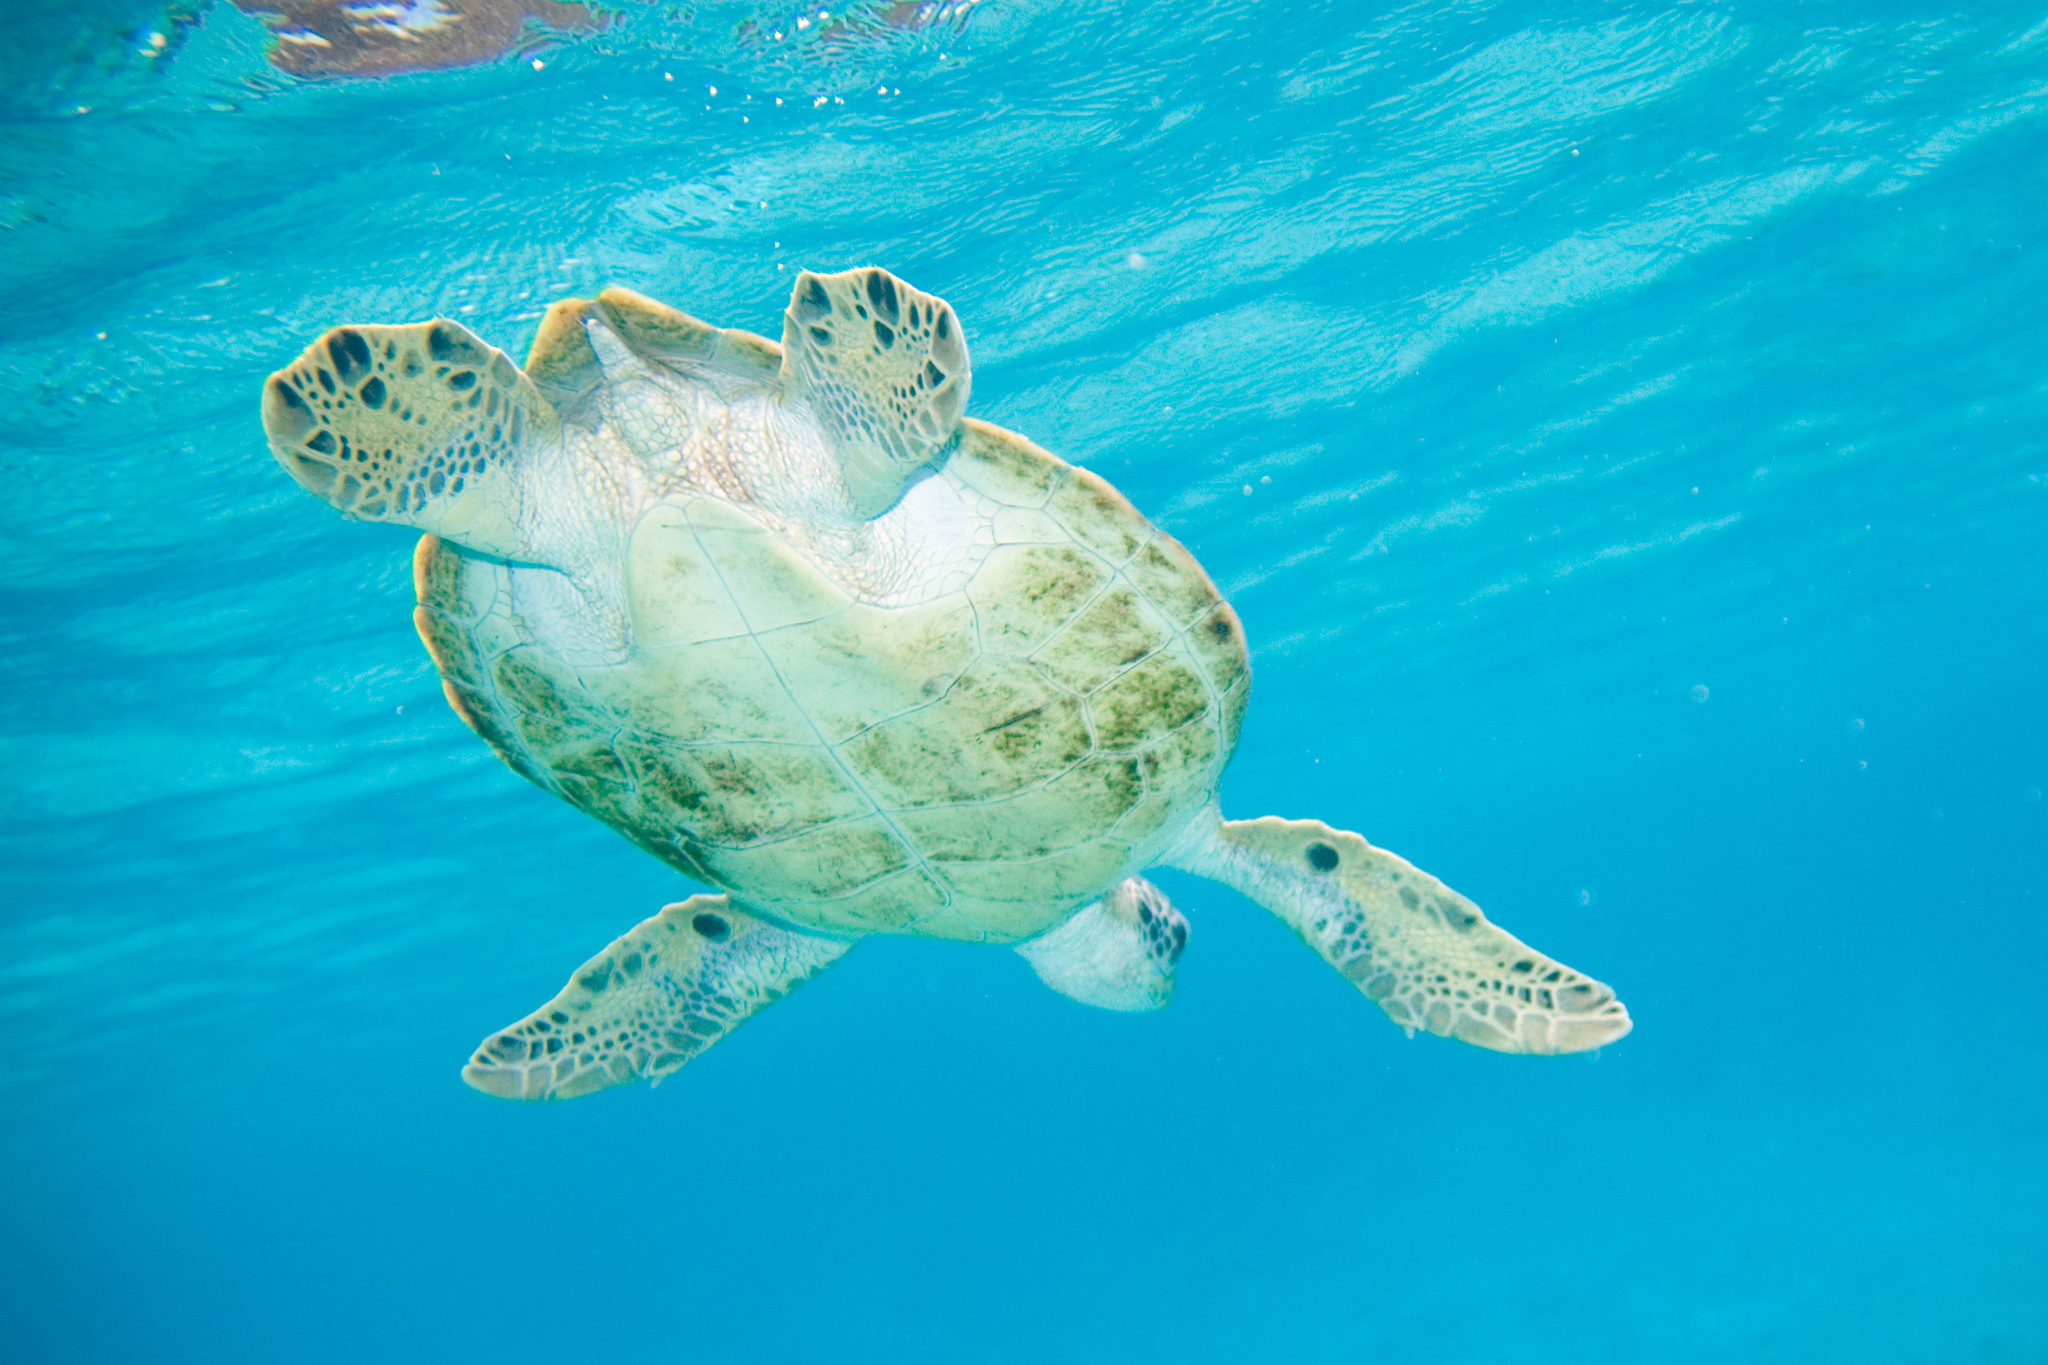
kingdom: Animalia
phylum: Chordata
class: Testudines
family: Cheloniidae
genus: Chelonia
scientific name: Chelonia mydas
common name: Green turtle
